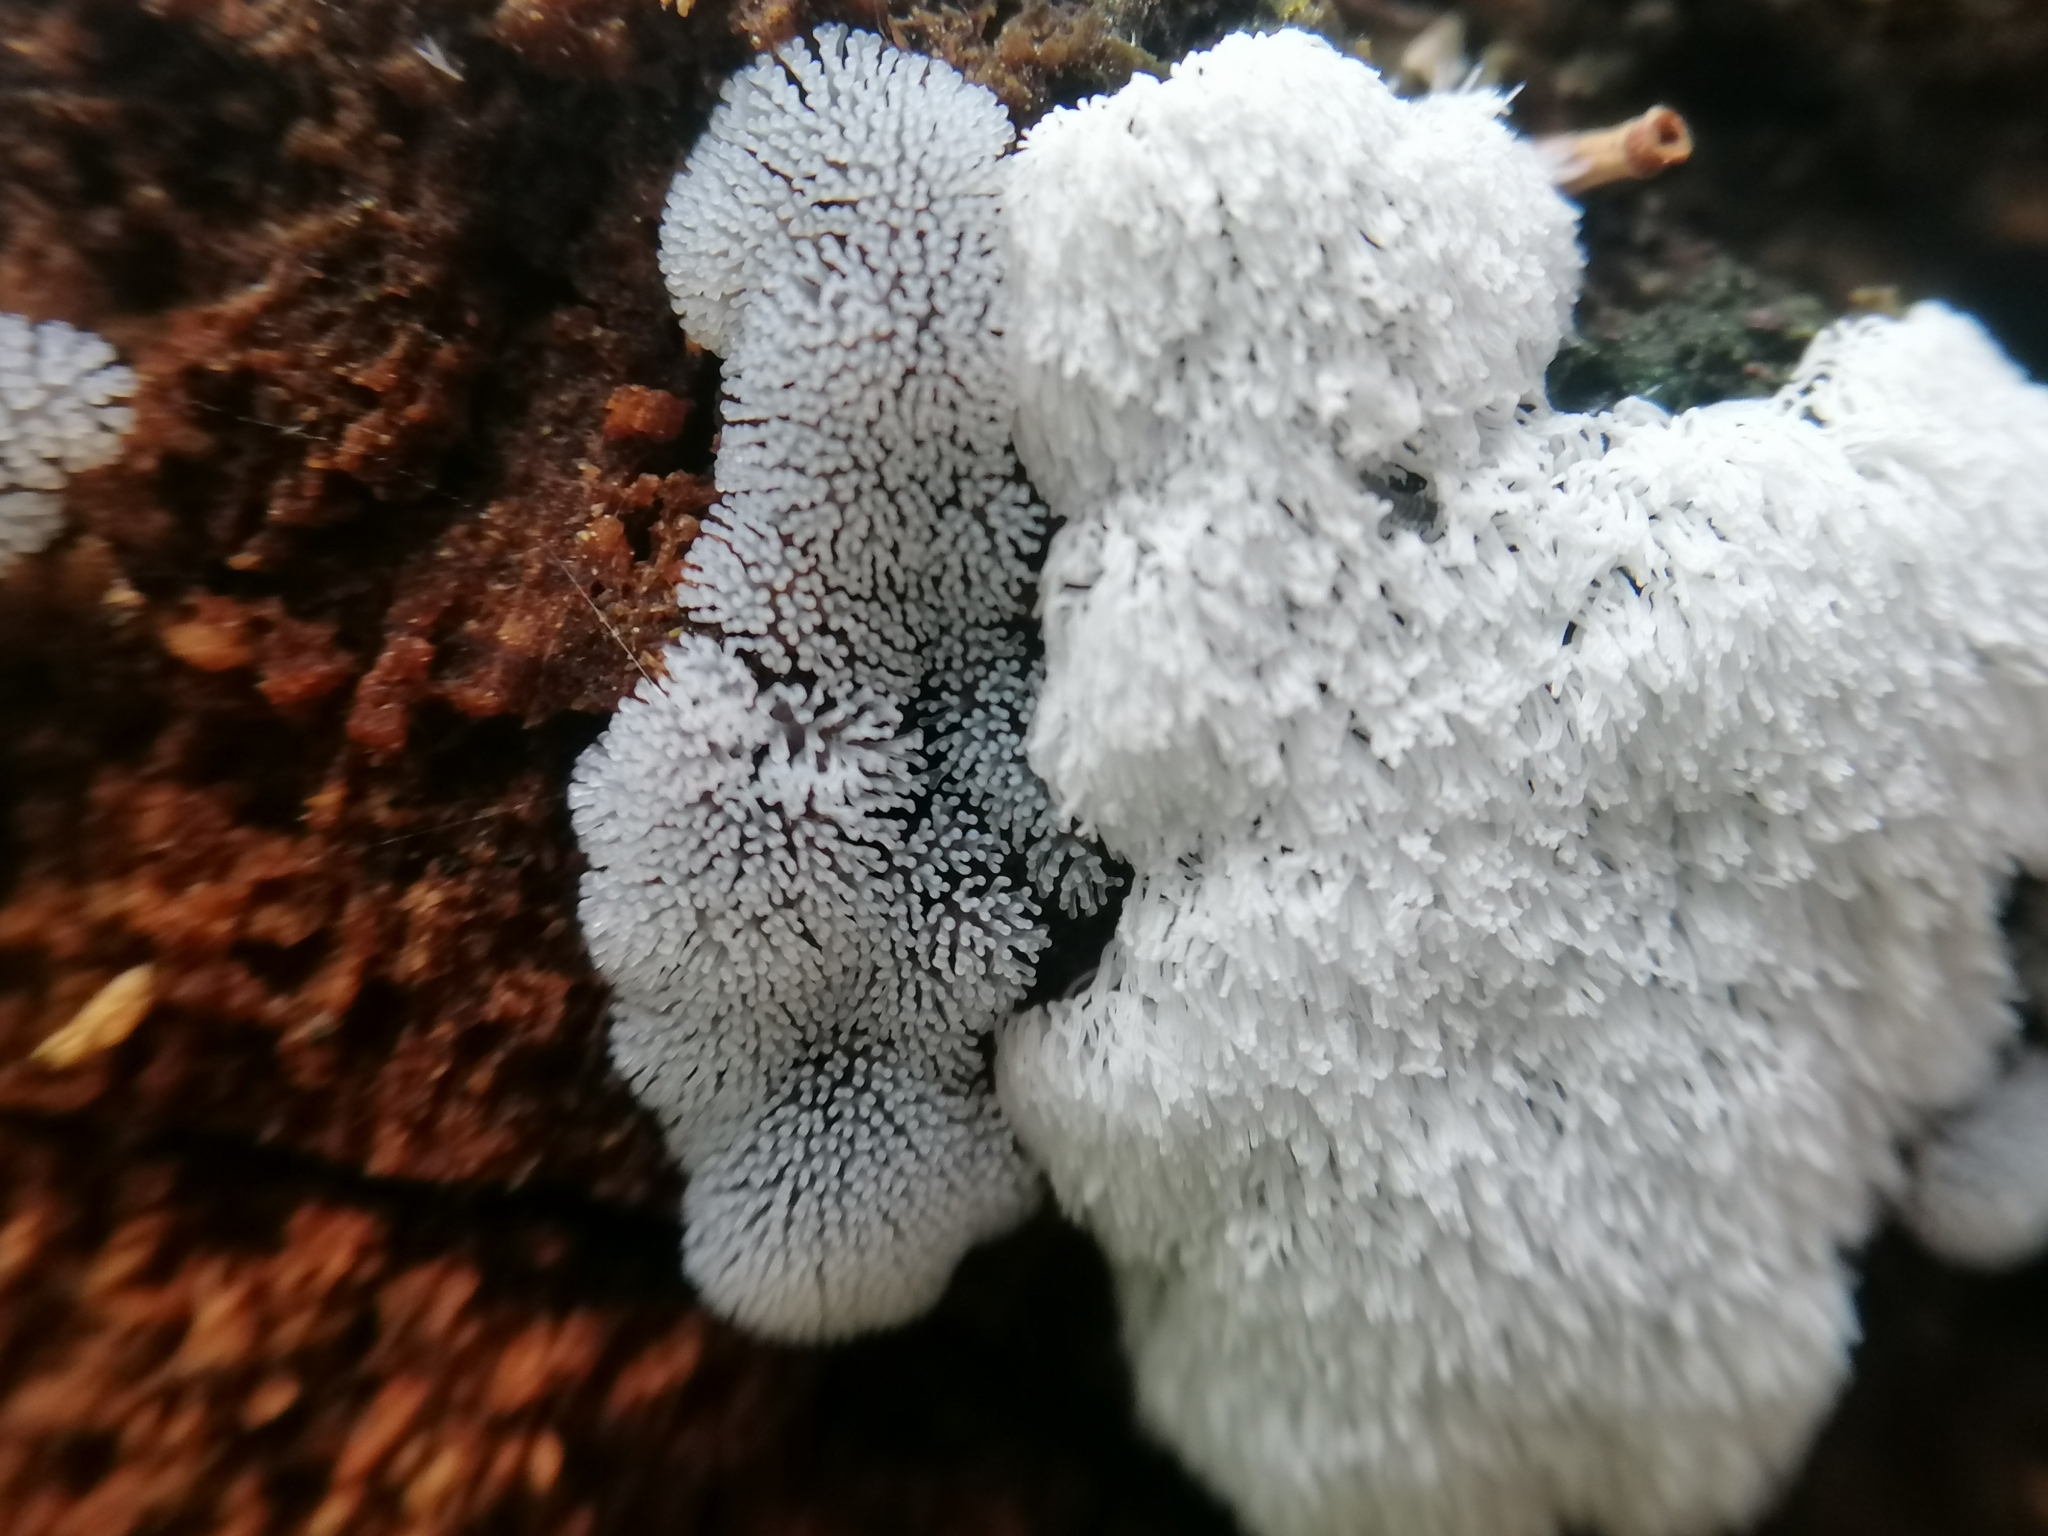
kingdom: Protozoa
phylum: Mycetozoa
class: Protosteliomycetes
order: Ceratiomyxales
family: Ceratiomyxaceae
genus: Ceratiomyxa
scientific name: Ceratiomyxa fruticulosa
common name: Honeycomb coral slime mold
